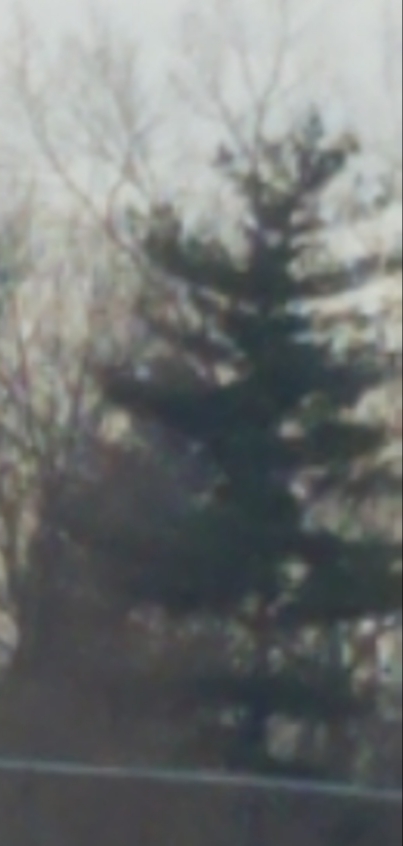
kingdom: Plantae
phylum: Tracheophyta
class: Pinopsida
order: Pinales
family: Pinaceae
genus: Pinus
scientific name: Pinus strobus
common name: Weymouth pine
